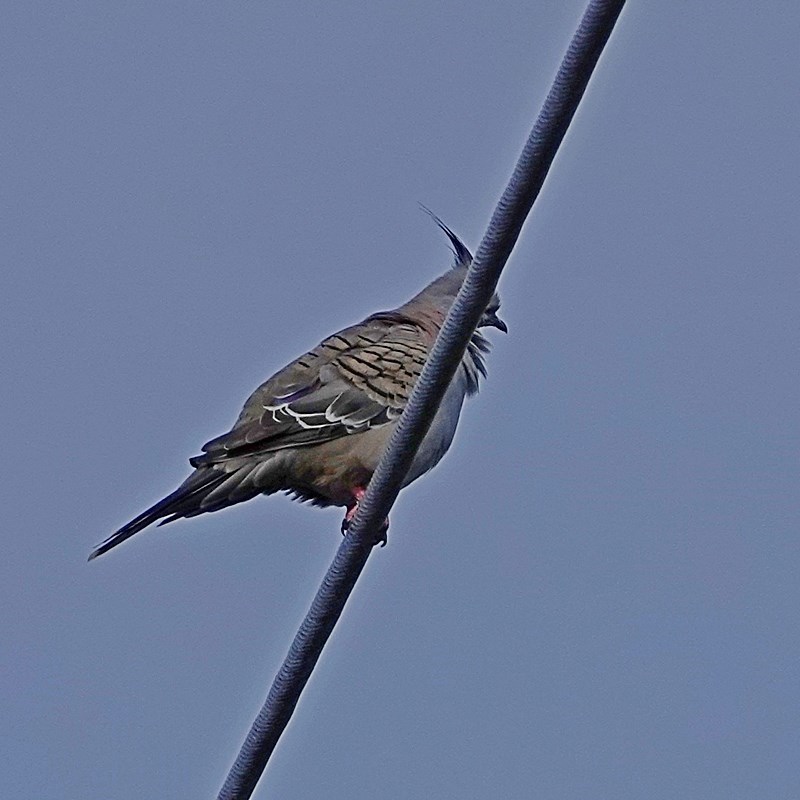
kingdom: Animalia
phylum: Chordata
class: Aves
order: Columbiformes
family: Columbidae
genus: Ocyphaps
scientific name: Ocyphaps lophotes
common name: Crested pigeon
